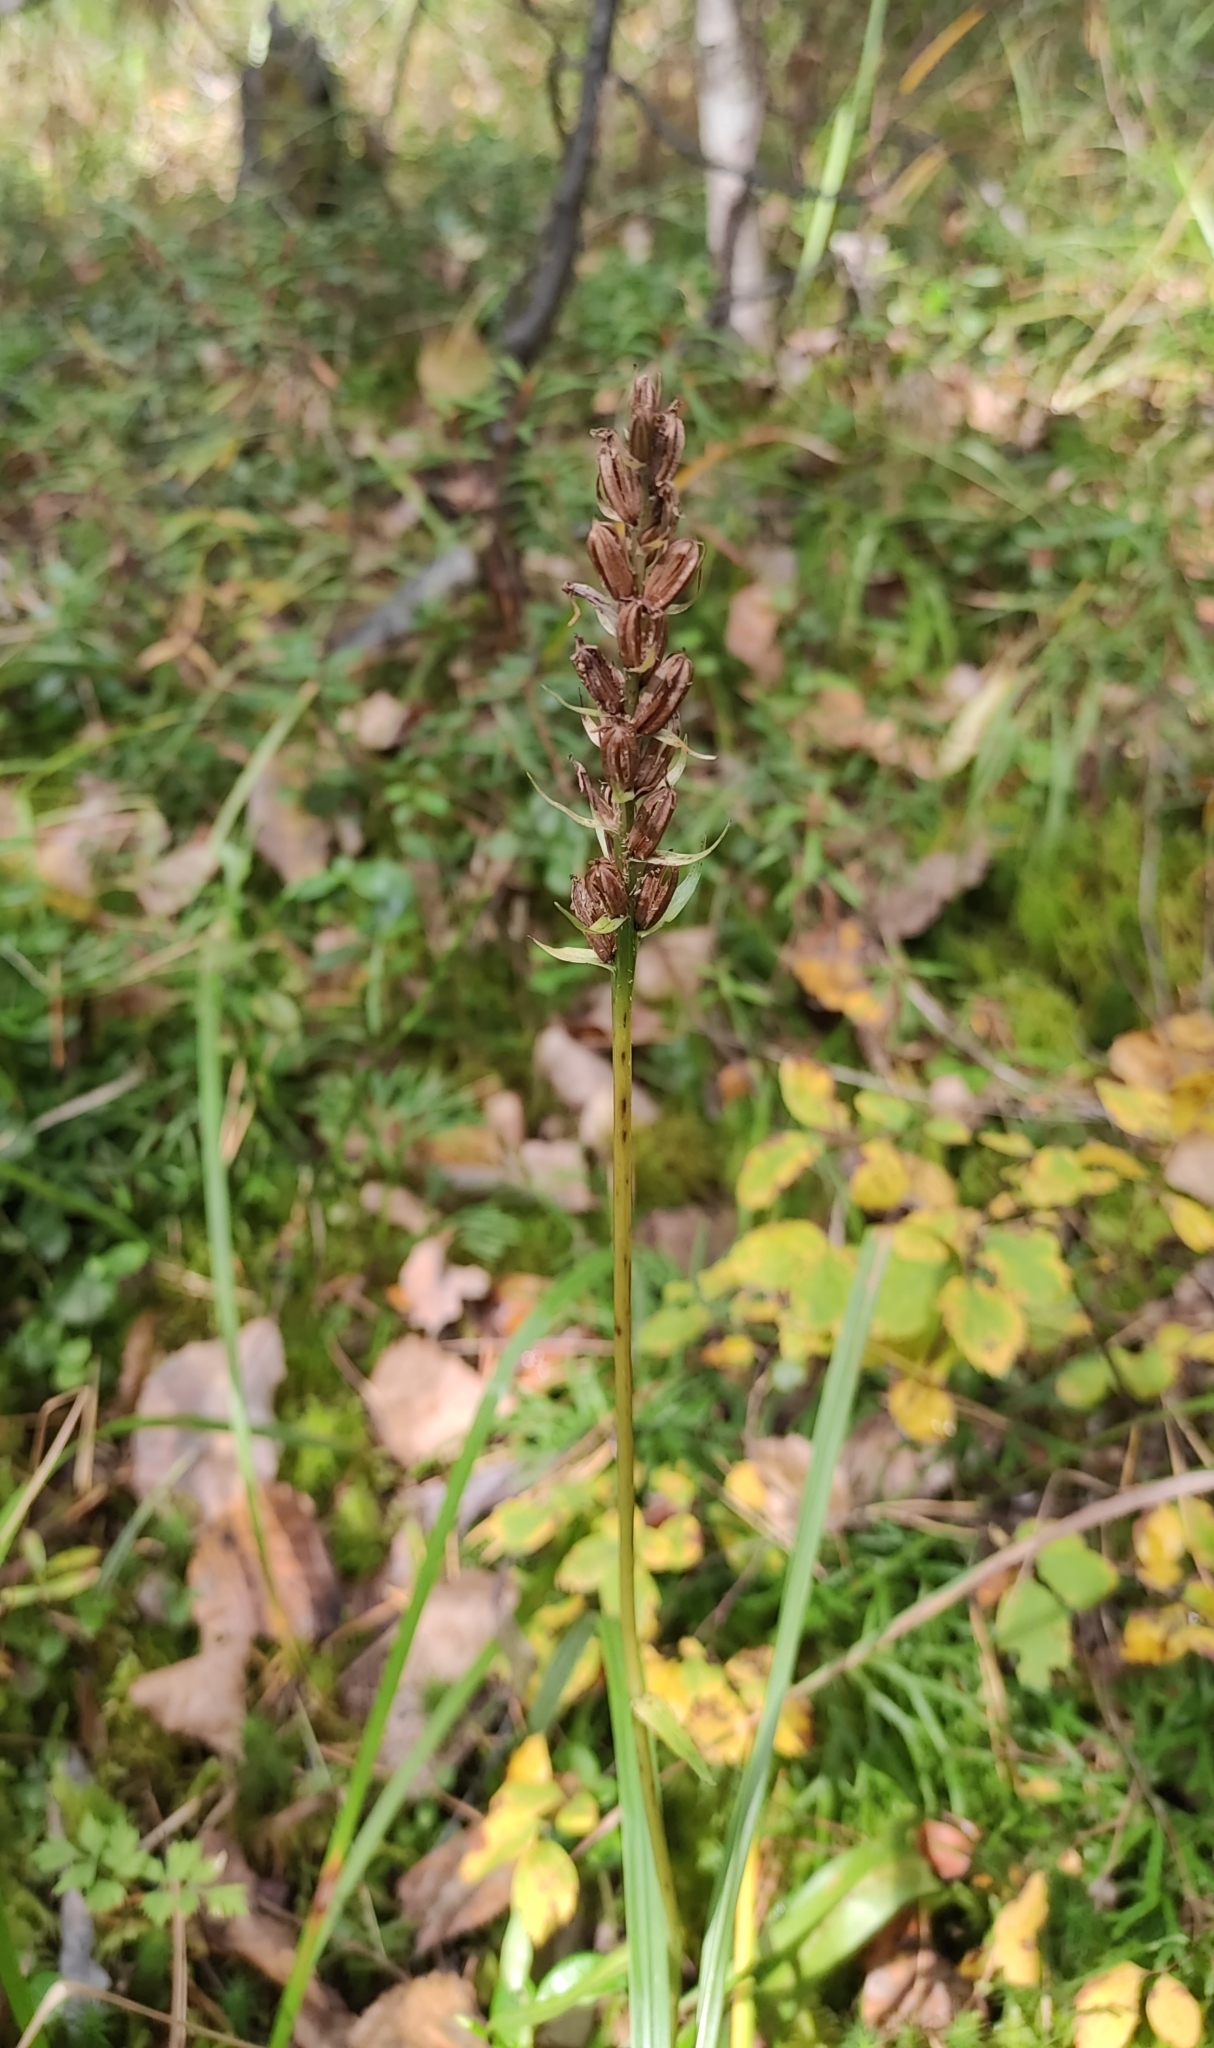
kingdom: Plantae
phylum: Tracheophyta
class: Liliopsida
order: Asparagales
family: Orchidaceae
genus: Dactylorhiza
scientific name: Dactylorhiza maculata
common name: Heath spotted-orchid
